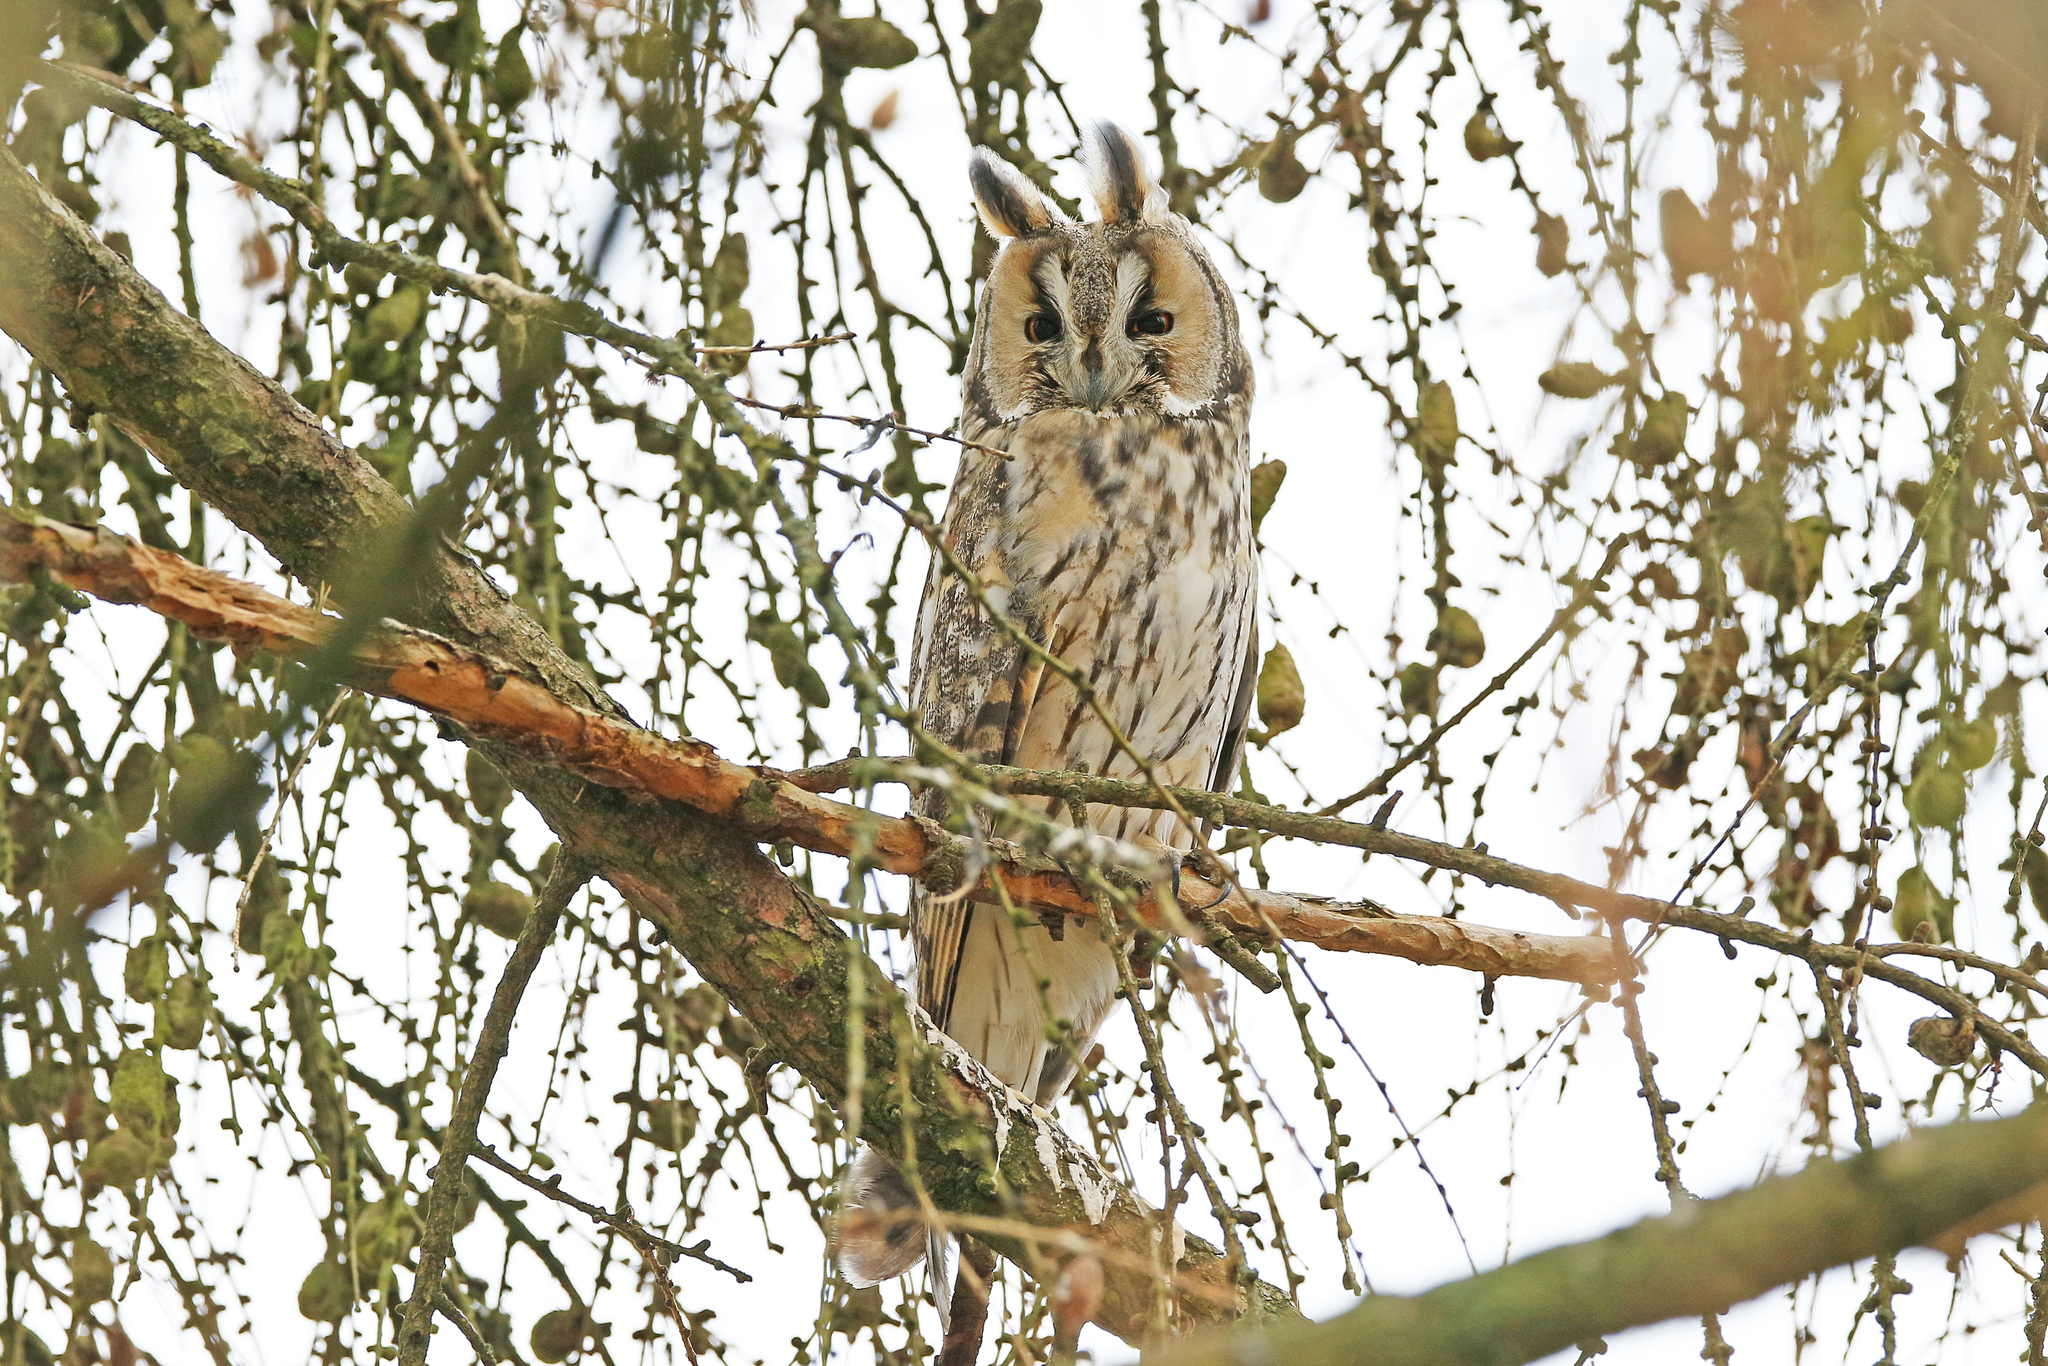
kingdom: Animalia
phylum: Chordata
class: Aves
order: Strigiformes
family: Strigidae
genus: Asio
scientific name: Asio otus
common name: Long-eared owl
